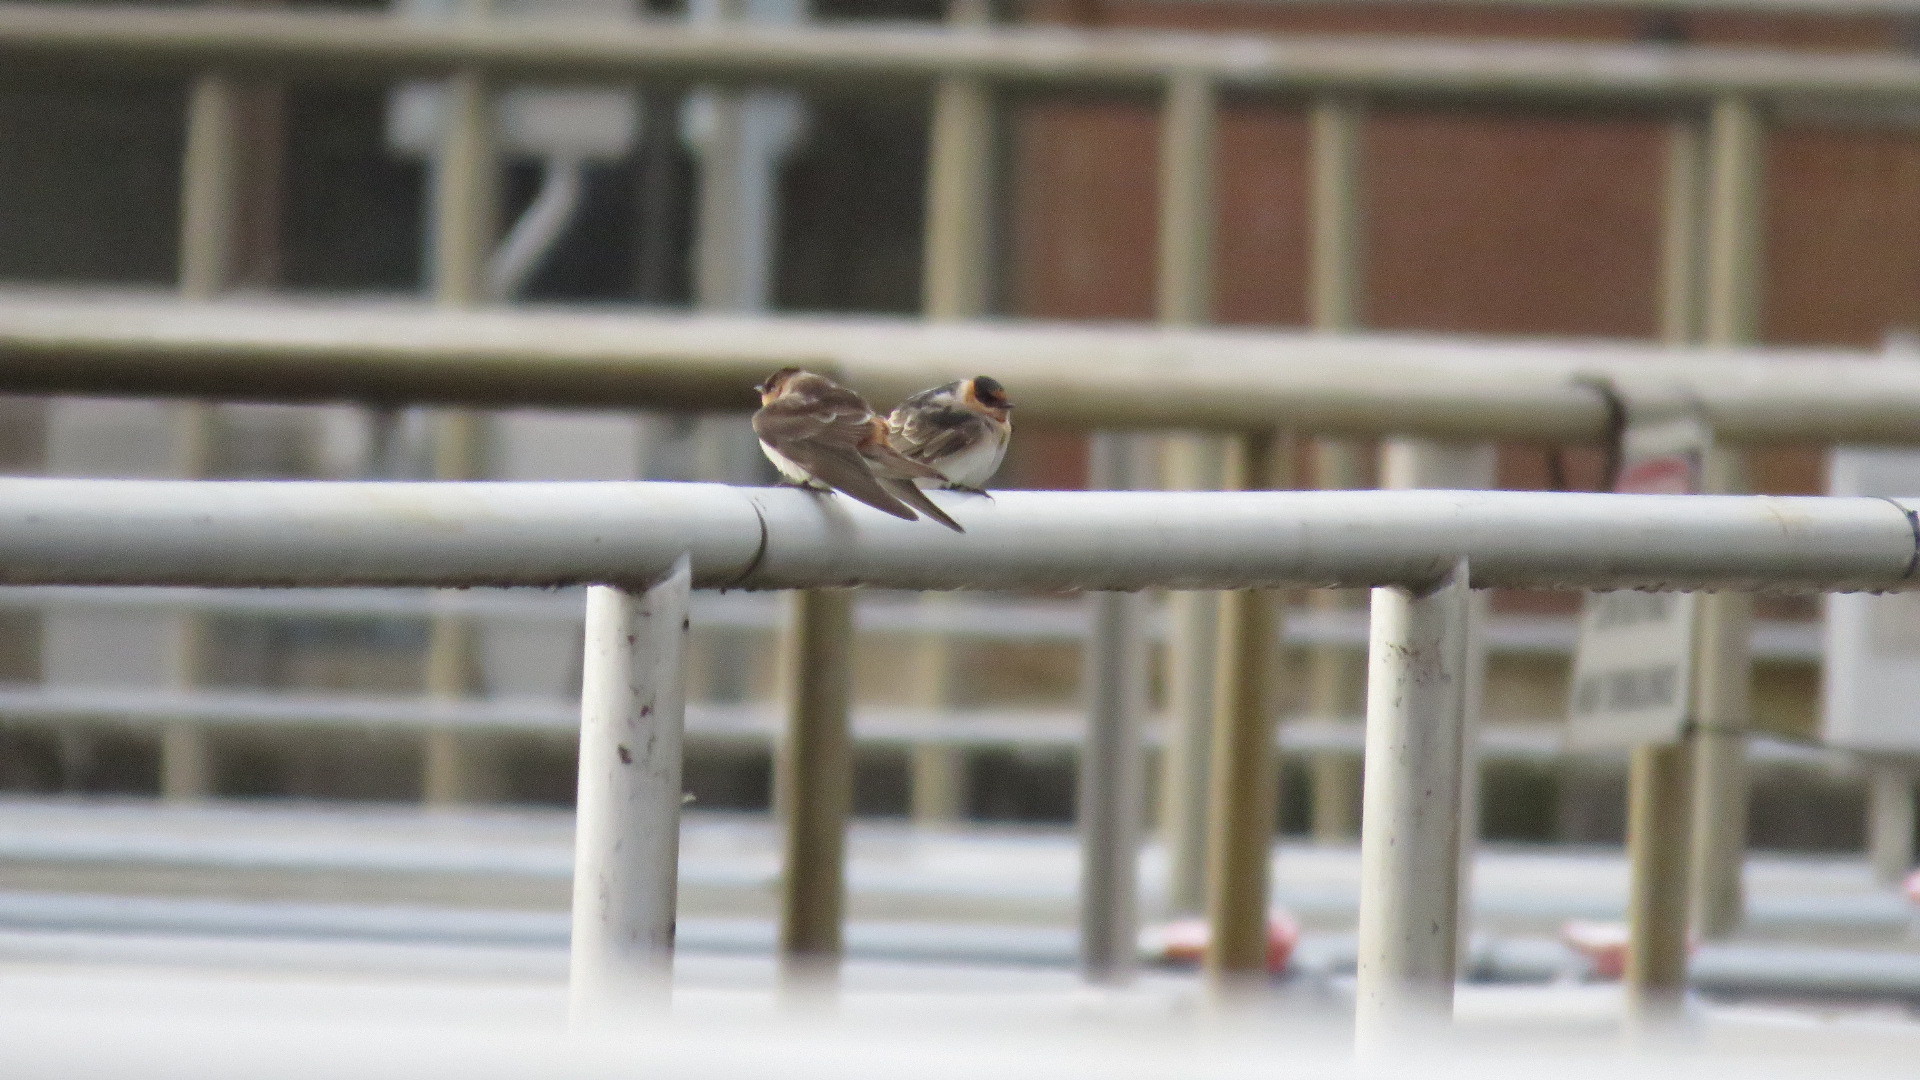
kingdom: Animalia
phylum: Chordata
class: Aves
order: Passeriformes
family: Hirundinidae
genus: Petrochelidon
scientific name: Petrochelidon fulva
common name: Cave swallow
